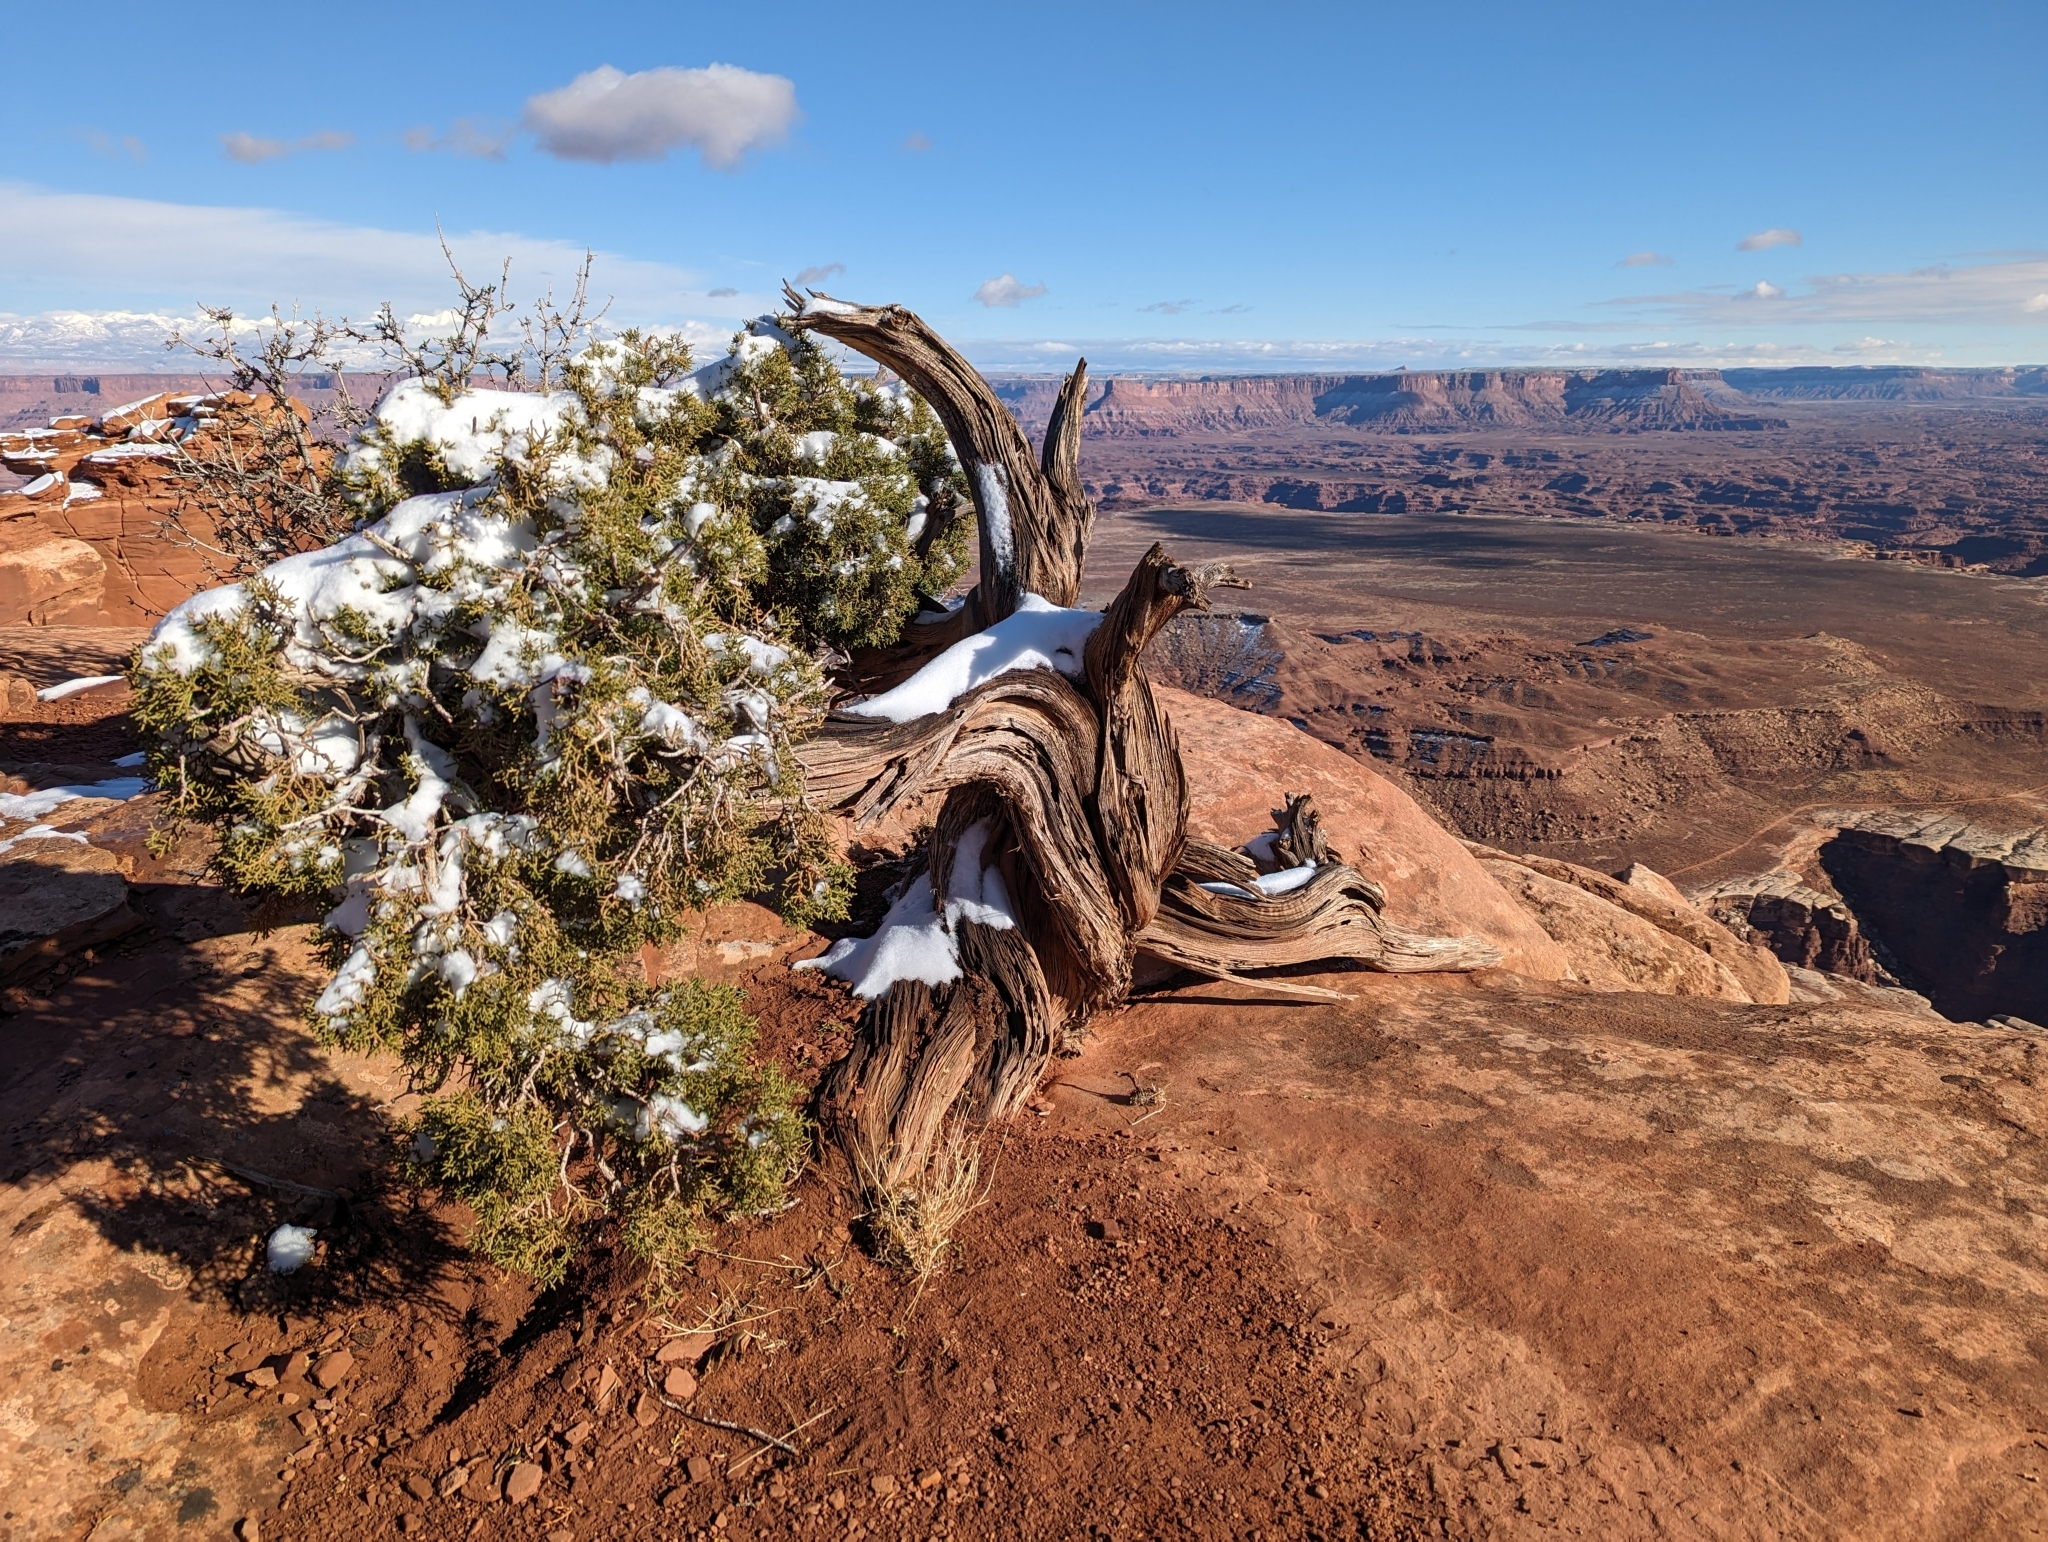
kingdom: Plantae
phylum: Tracheophyta
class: Pinopsida
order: Pinales
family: Cupressaceae
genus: Juniperus
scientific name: Juniperus osteosperma
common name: Utah juniper
